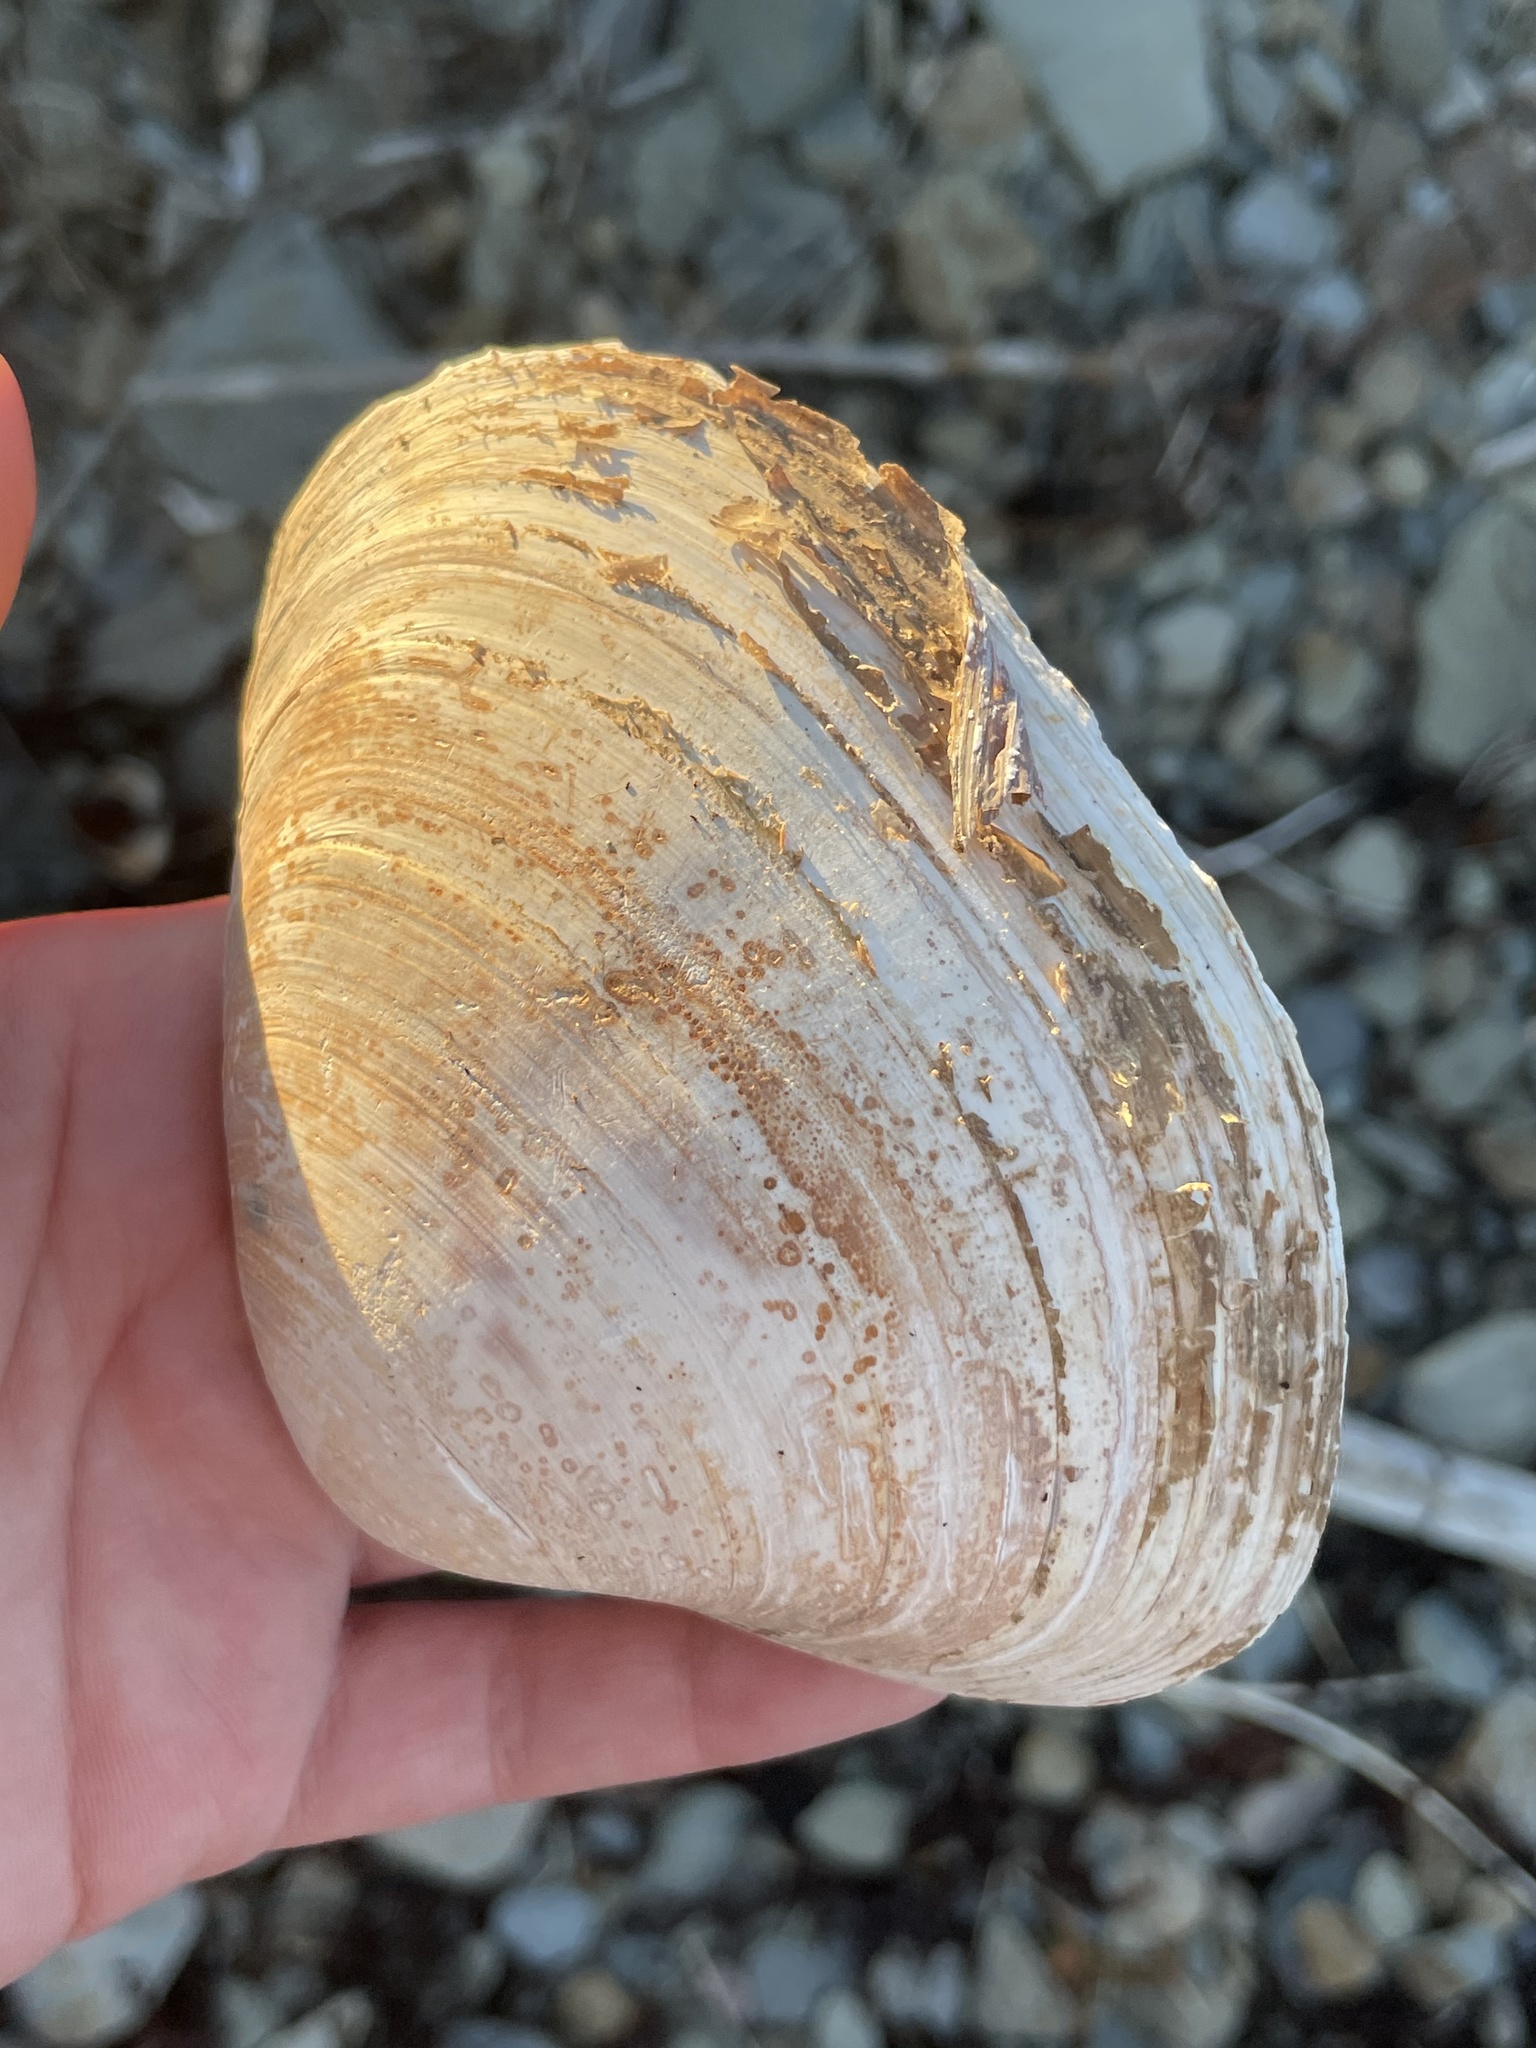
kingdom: Animalia
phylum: Mollusca
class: Bivalvia
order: Venerida
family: Mactridae
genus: Spisula
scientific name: Spisula solidissima
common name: Atlantic surf clam
